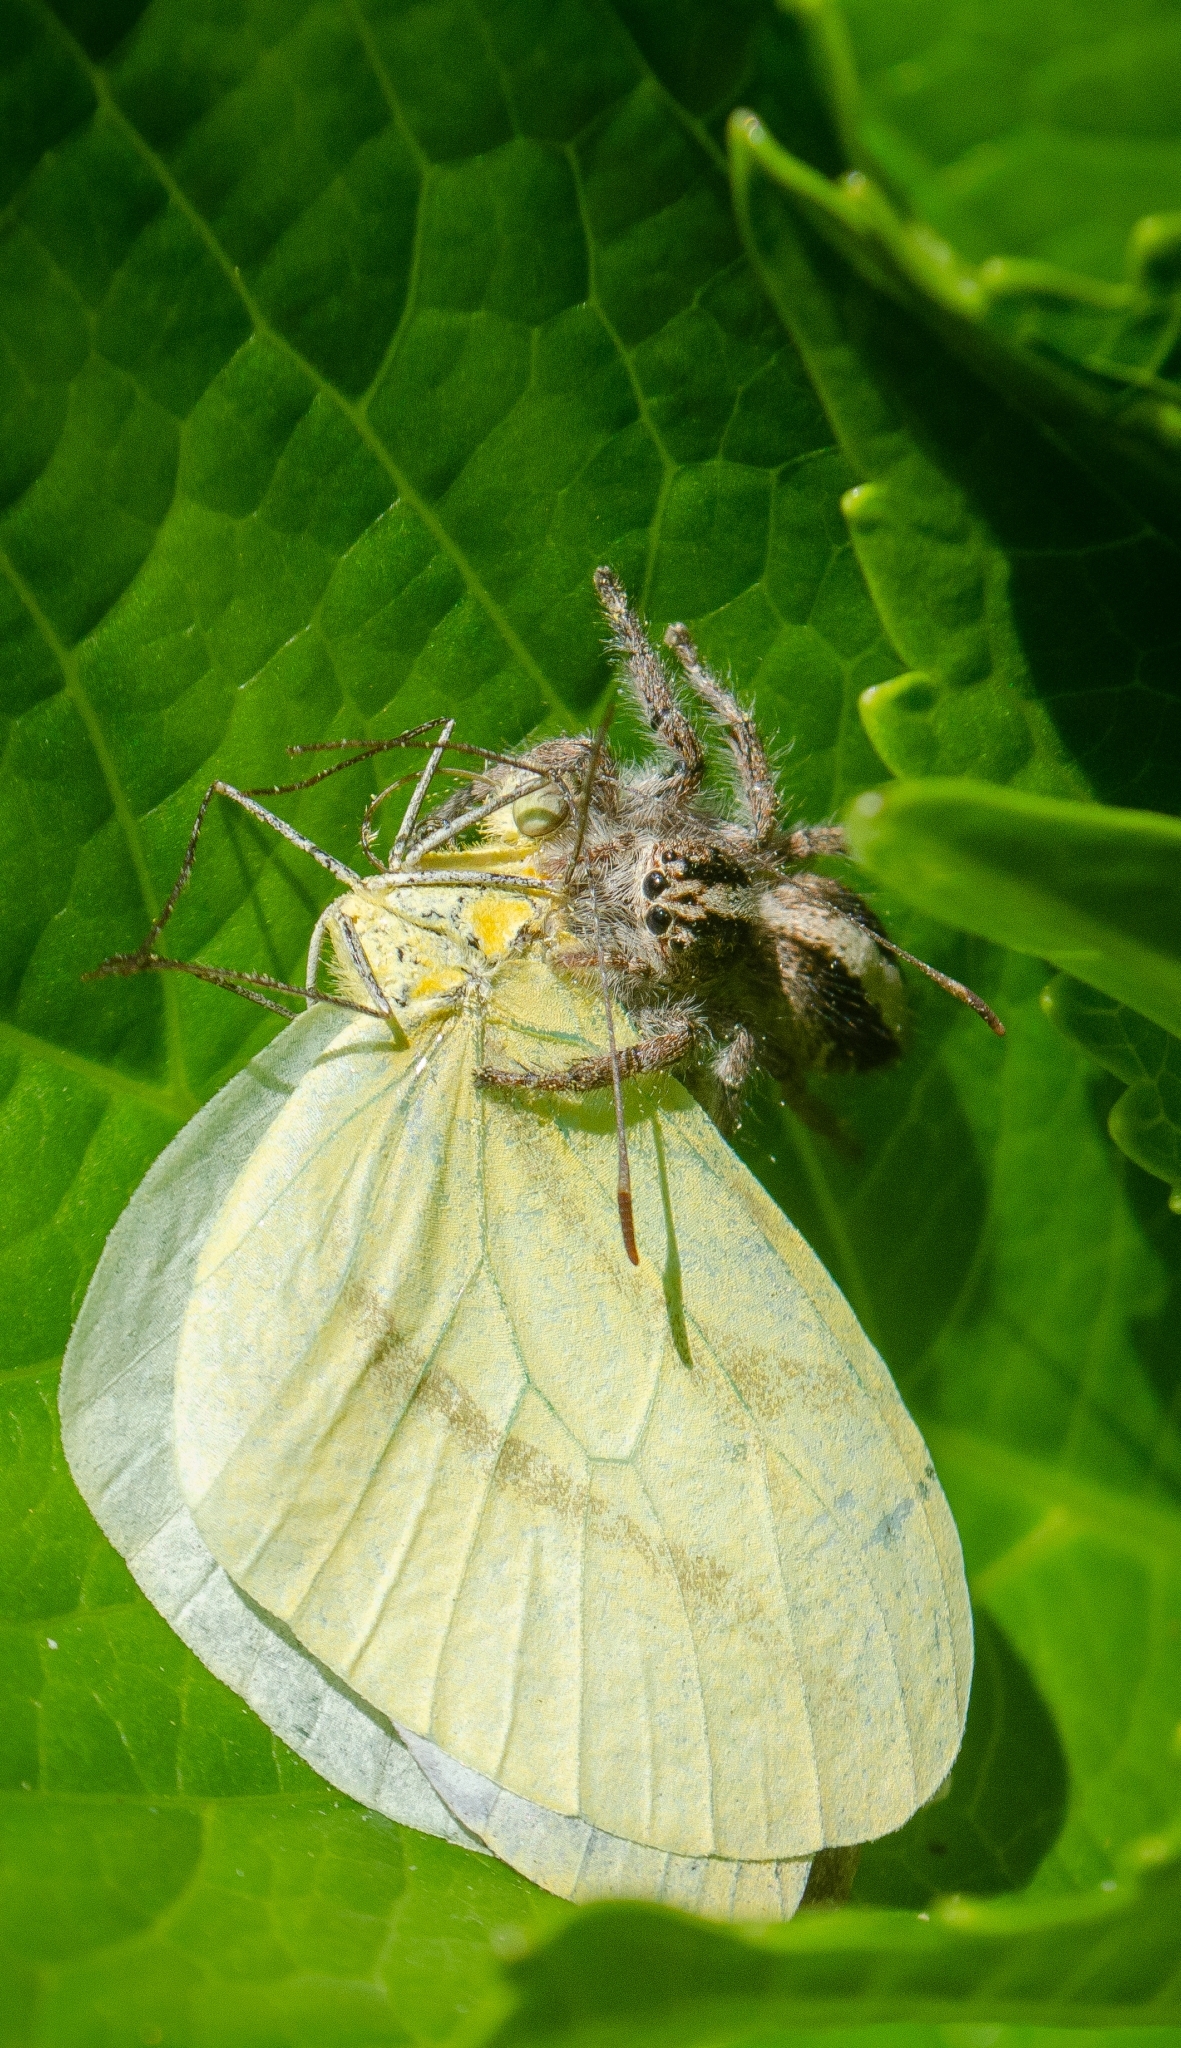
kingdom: Animalia
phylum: Arthropoda
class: Arachnida
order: Araneae
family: Salticidae
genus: Megafreya
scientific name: Megafreya sutrix
